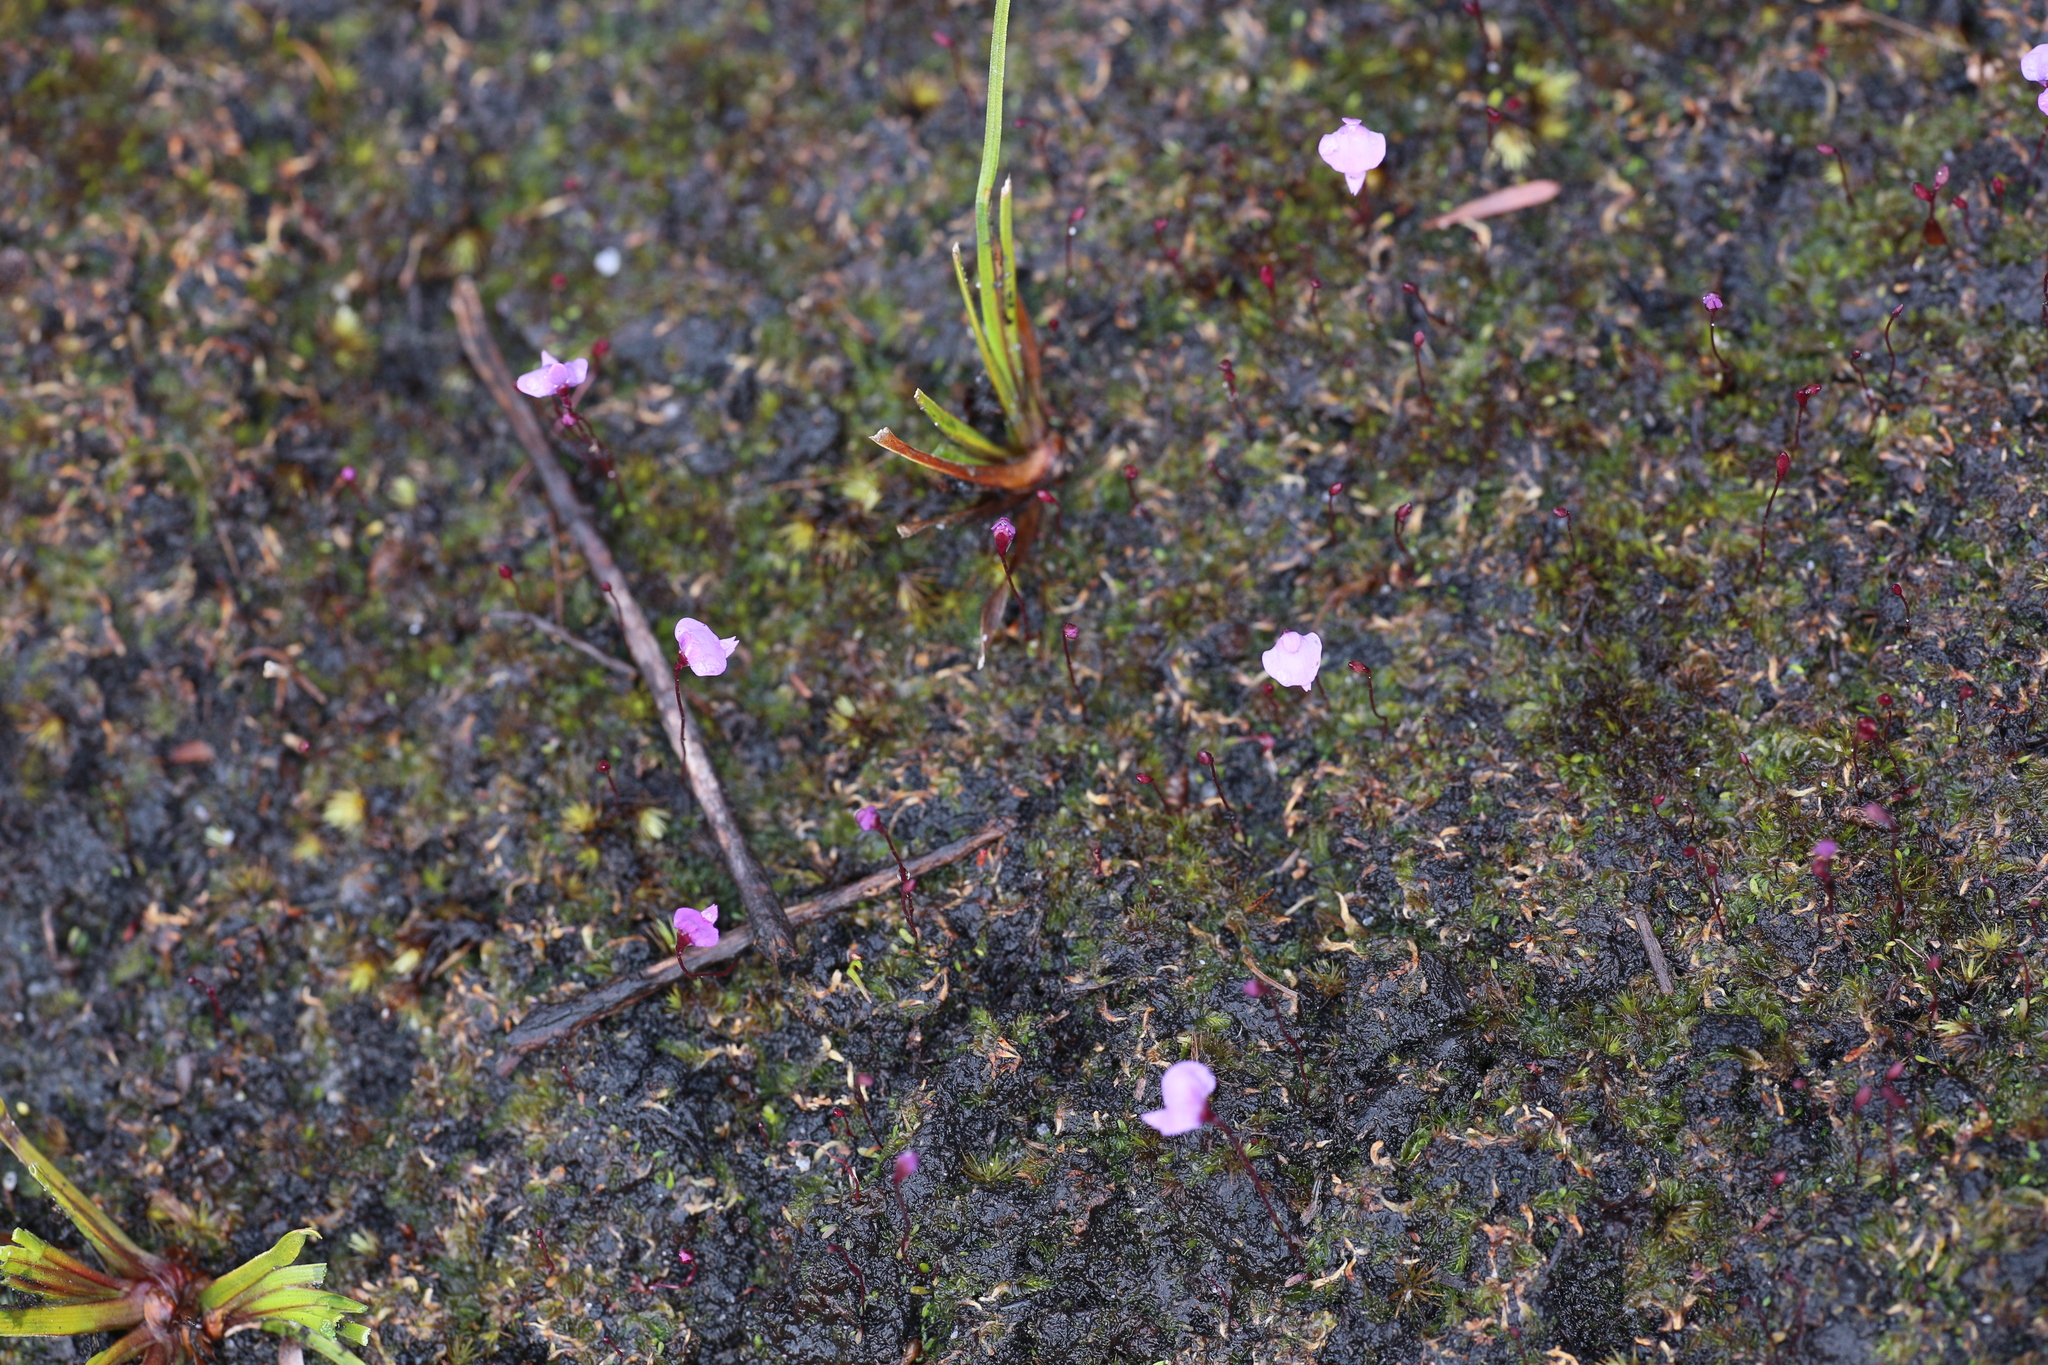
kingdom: Plantae
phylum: Tracheophyta
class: Magnoliopsida
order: Lamiales
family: Lentibulariaceae
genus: Utricularia
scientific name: Utricularia simplex
